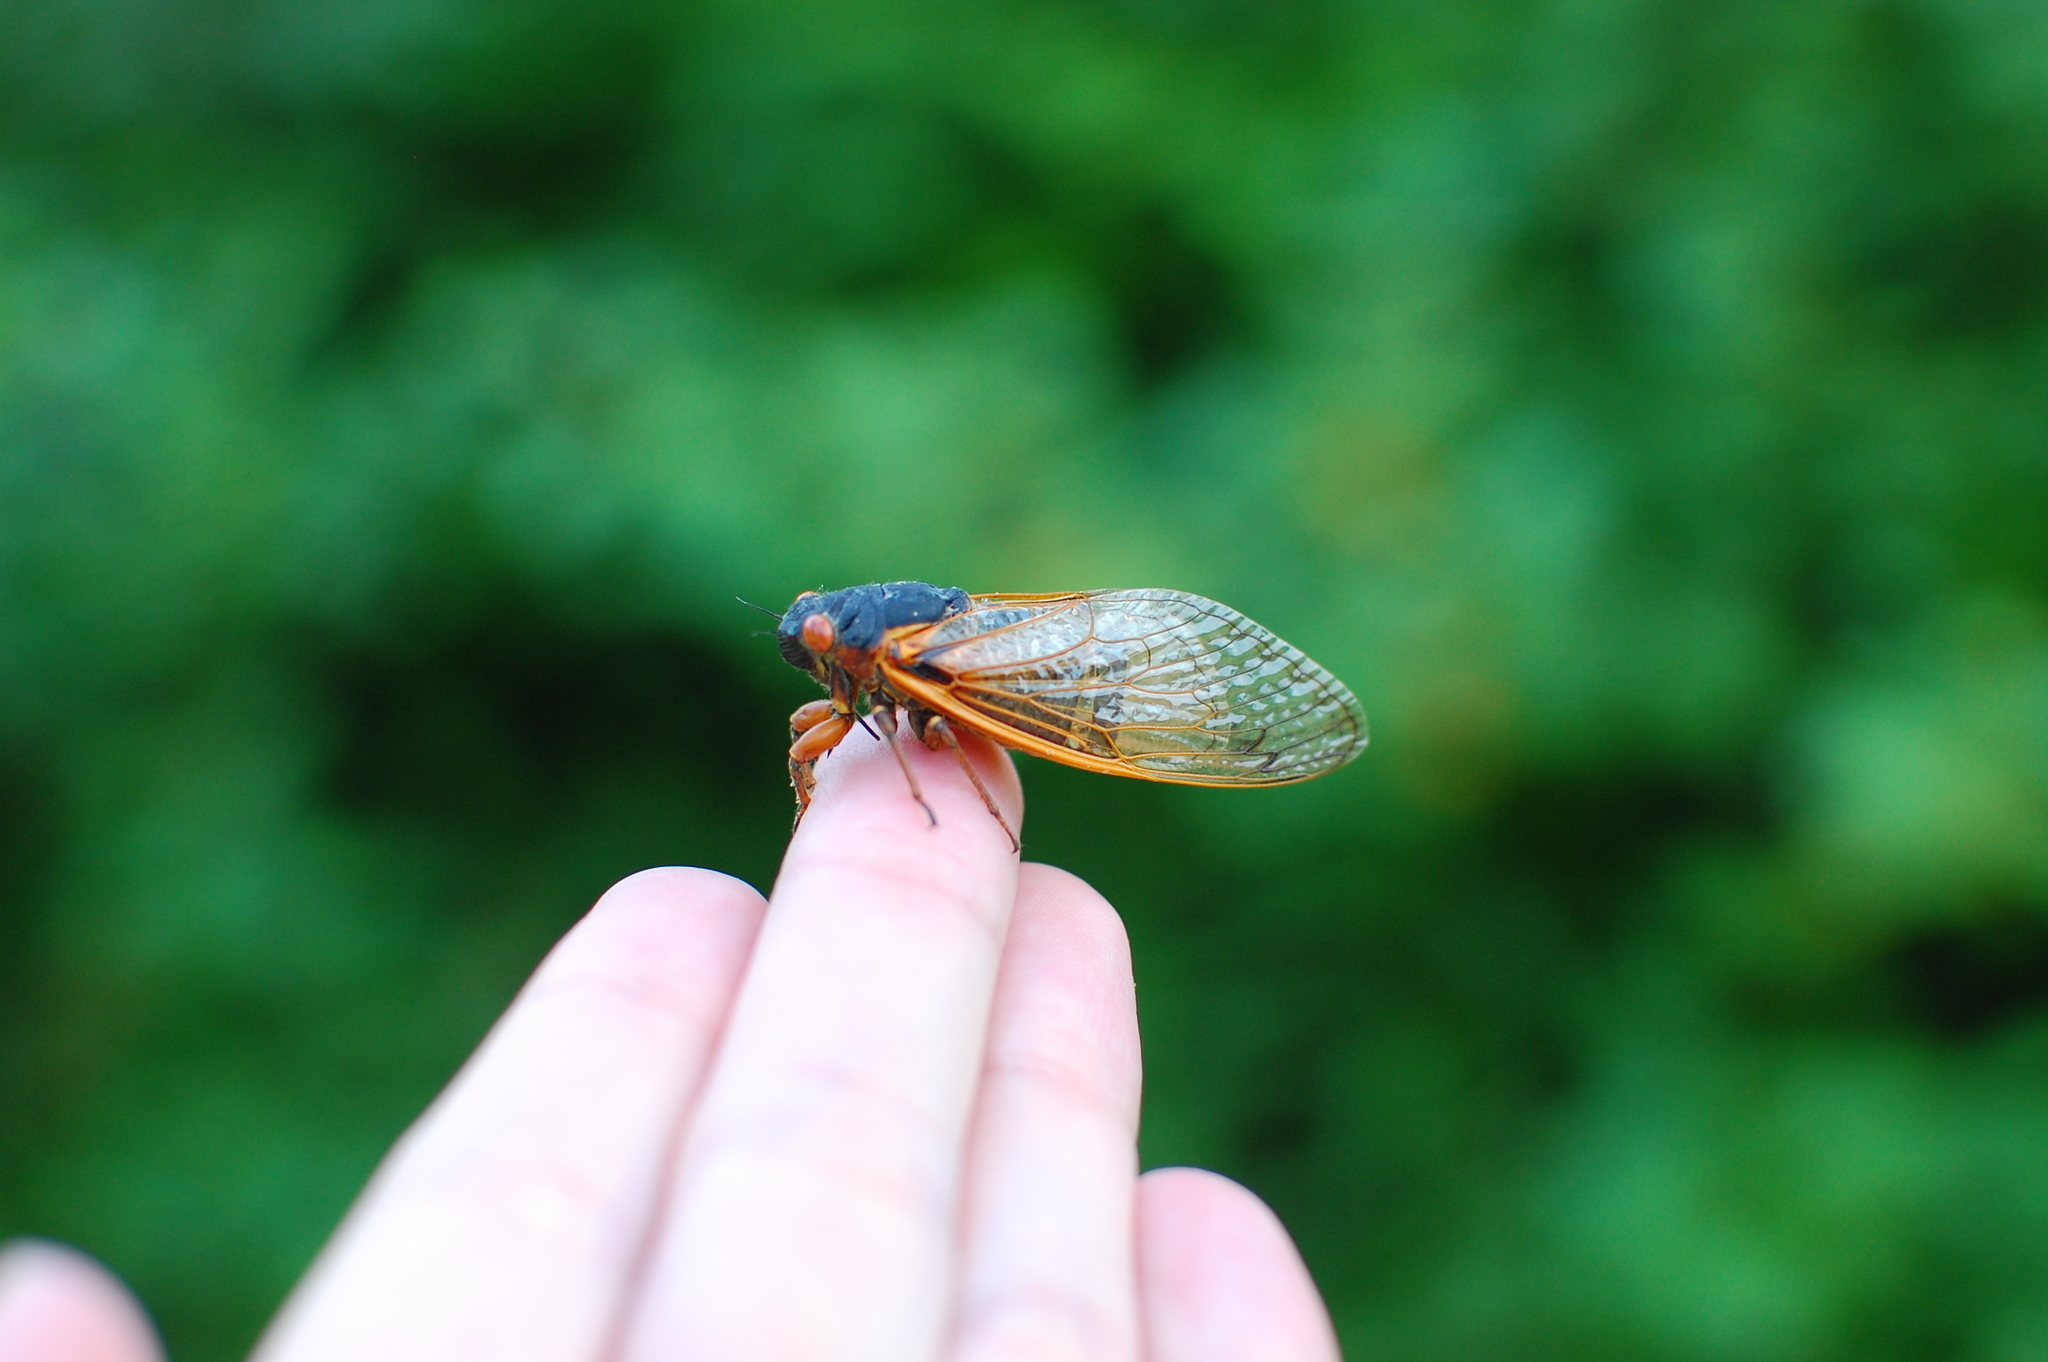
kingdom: Animalia
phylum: Arthropoda
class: Insecta
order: Hemiptera
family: Cicadidae
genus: Magicicada
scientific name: Magicicada septendecim
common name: Periodical cicada
